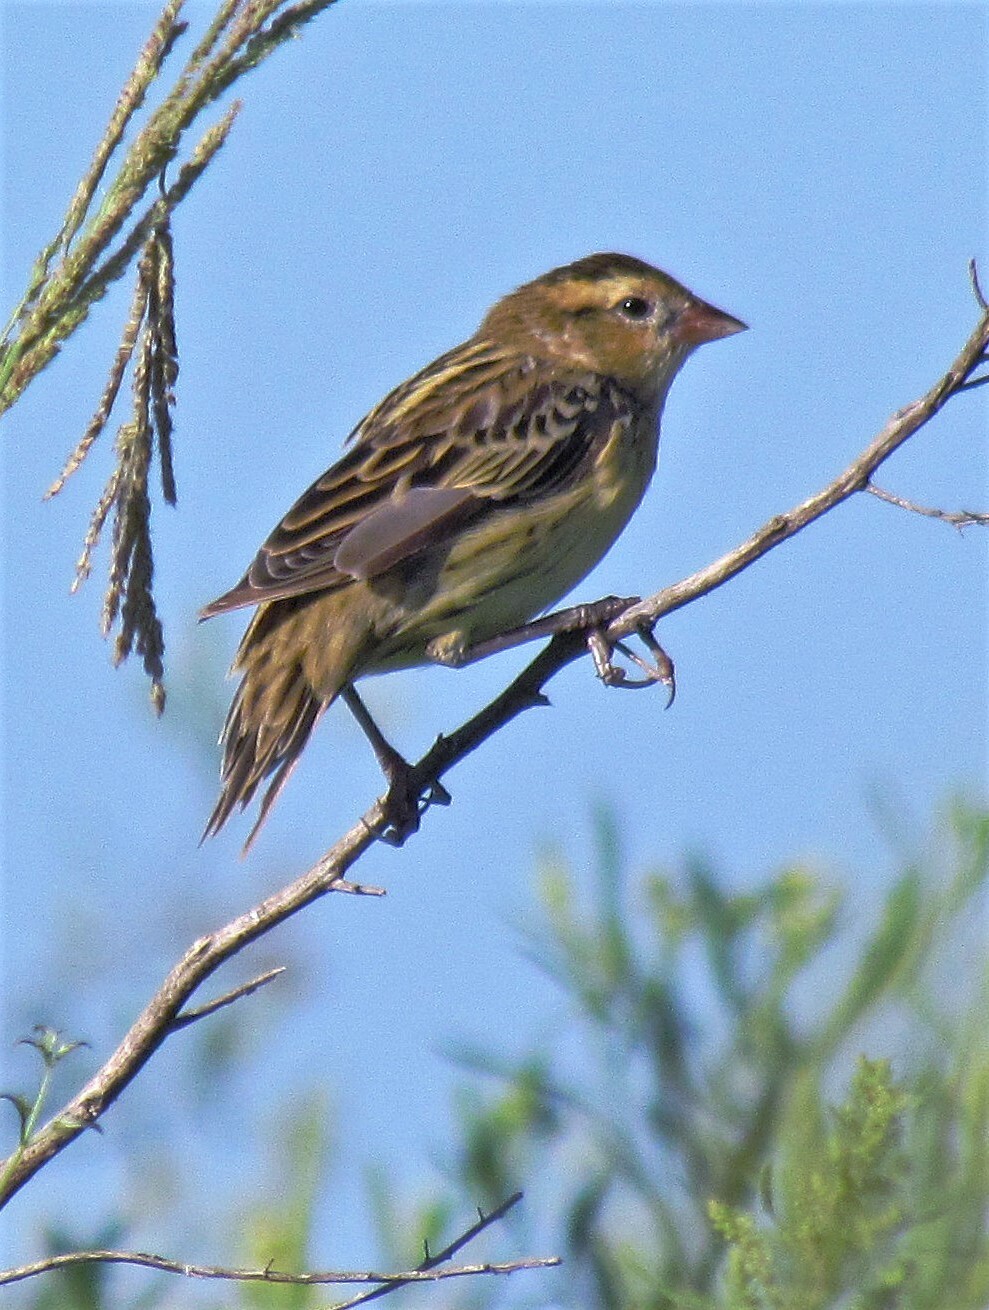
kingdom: Animalia
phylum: Chordata
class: Aves
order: Passeriformes
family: Icteridae
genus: Dolichonyx
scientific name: Dolichonyx oryzivorus
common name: Bobolink
